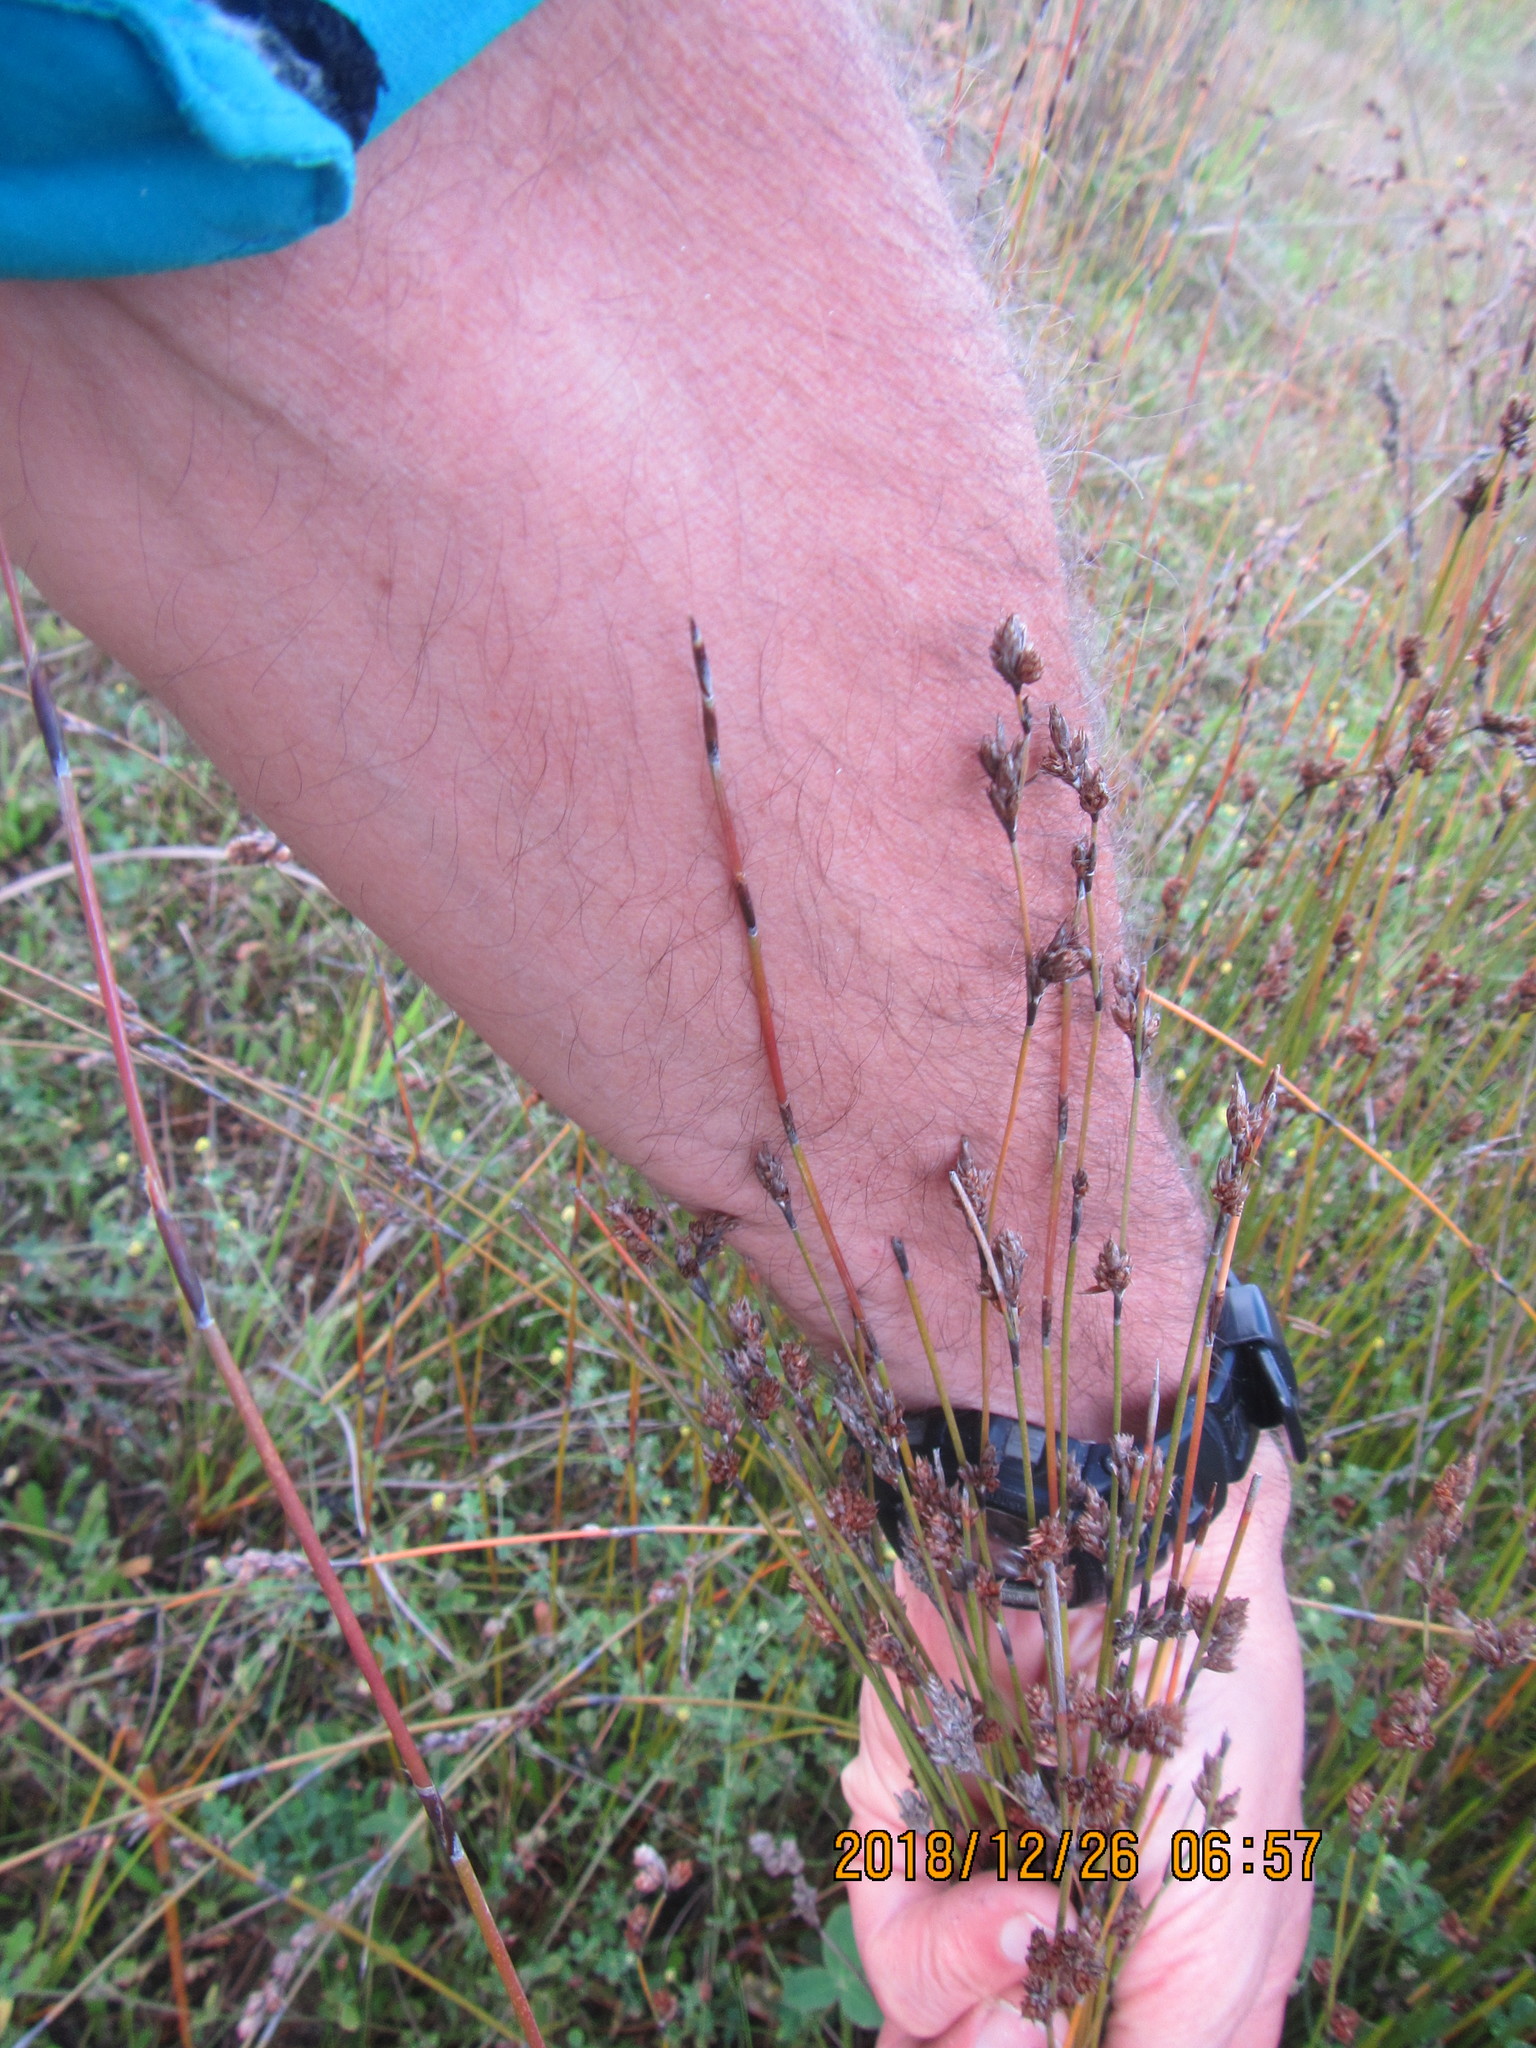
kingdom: Plantae
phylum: Tracheophyta
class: Liliopsida
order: Poales
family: Restionaceae
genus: Apodasmia
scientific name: Apodasmia similis
